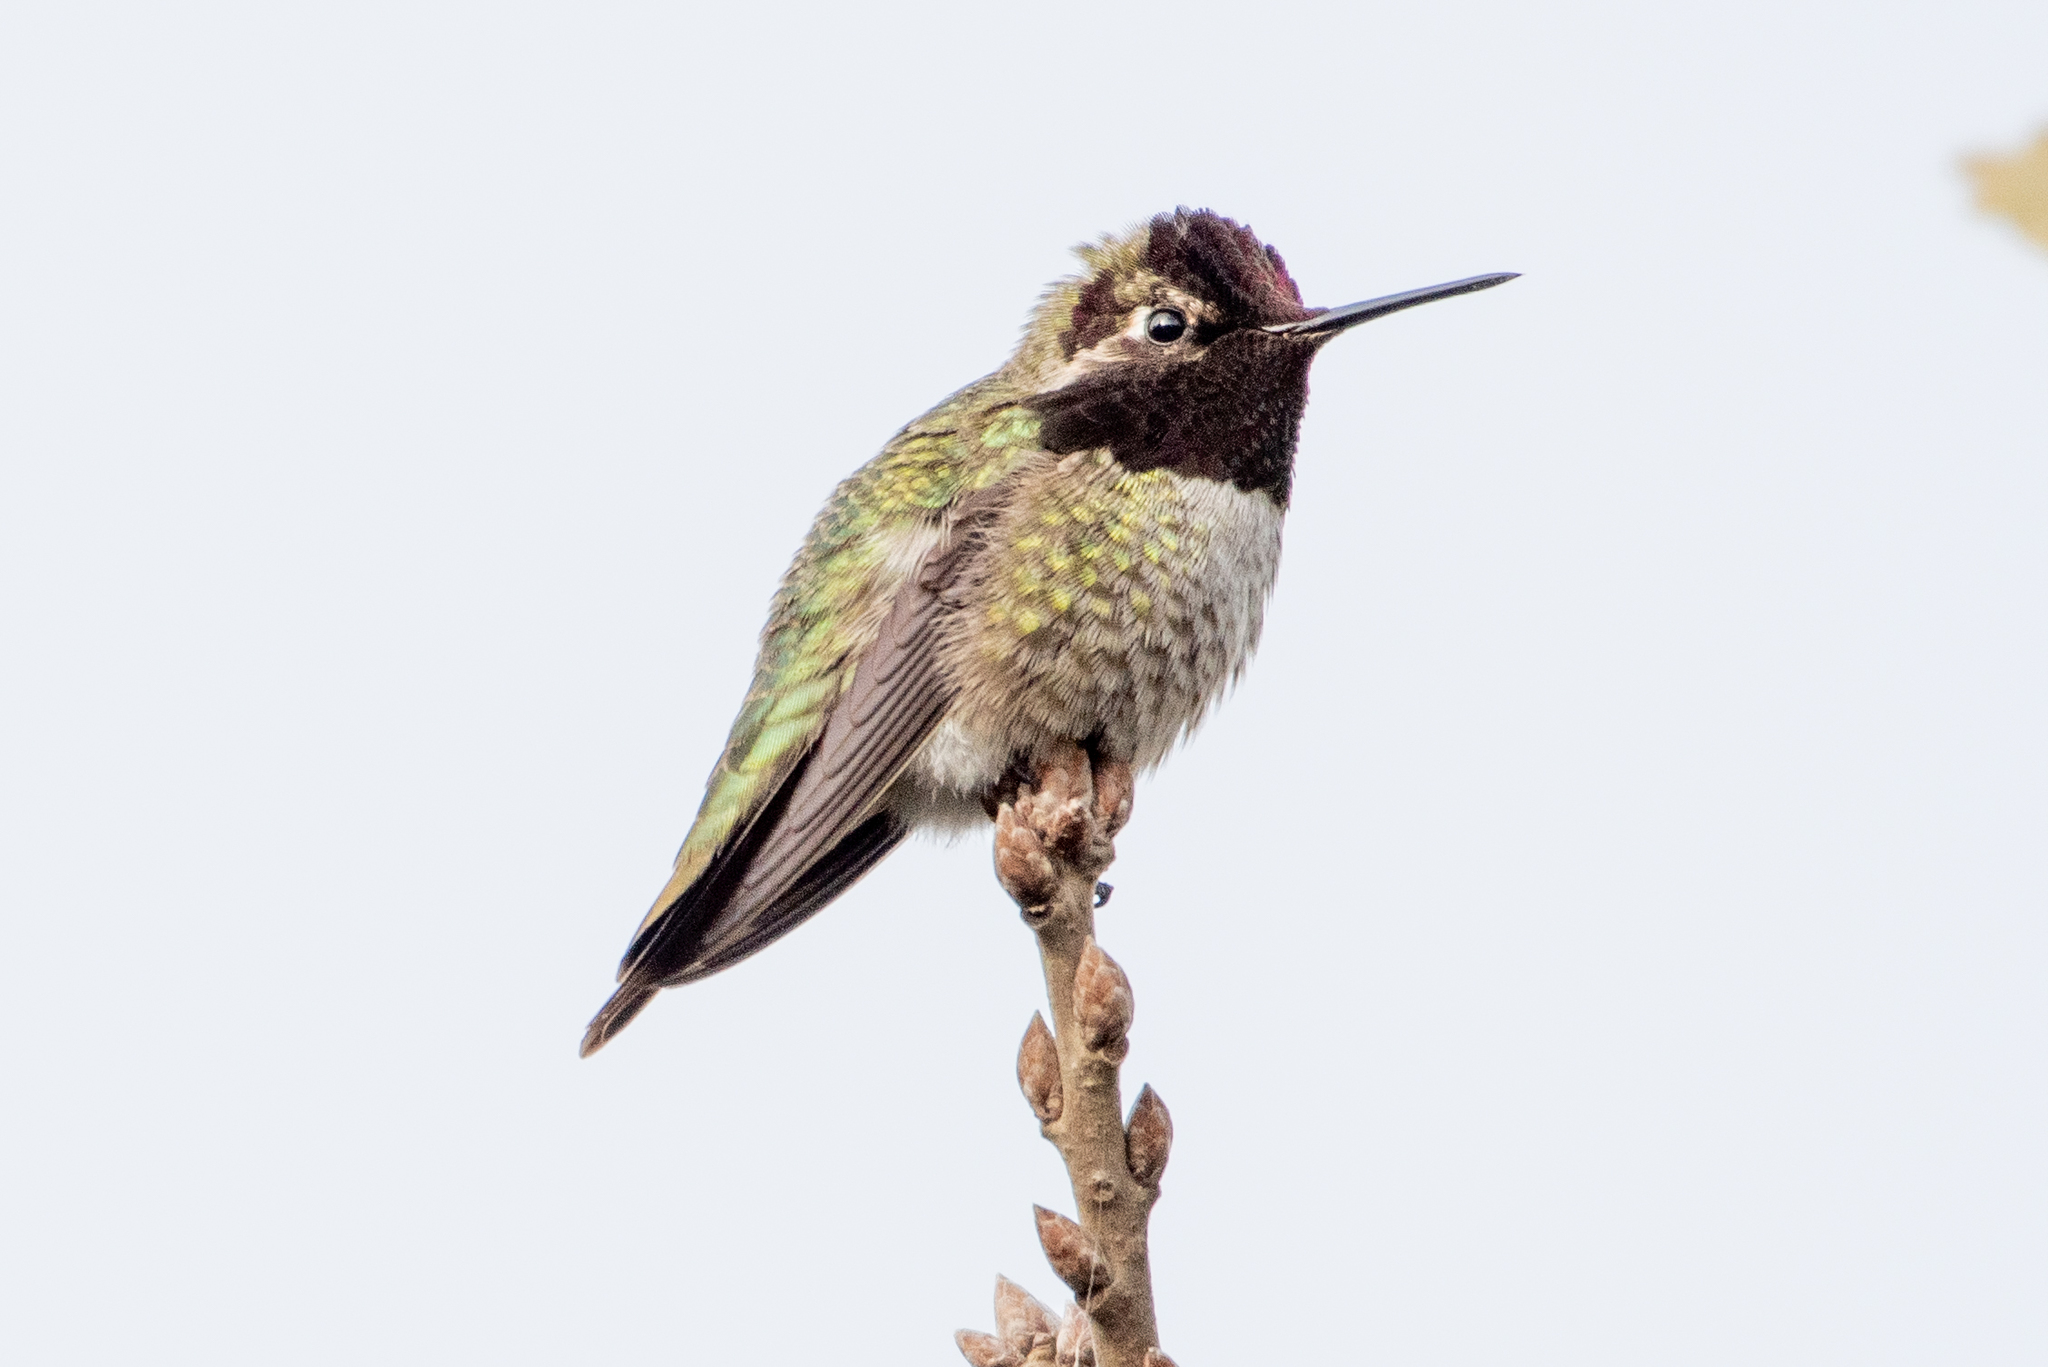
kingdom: Animalia
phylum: Chordata
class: Aves
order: Apodiformes
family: Trochilidae
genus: Calypte
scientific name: Calypte anna
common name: Anna's hummingbird
